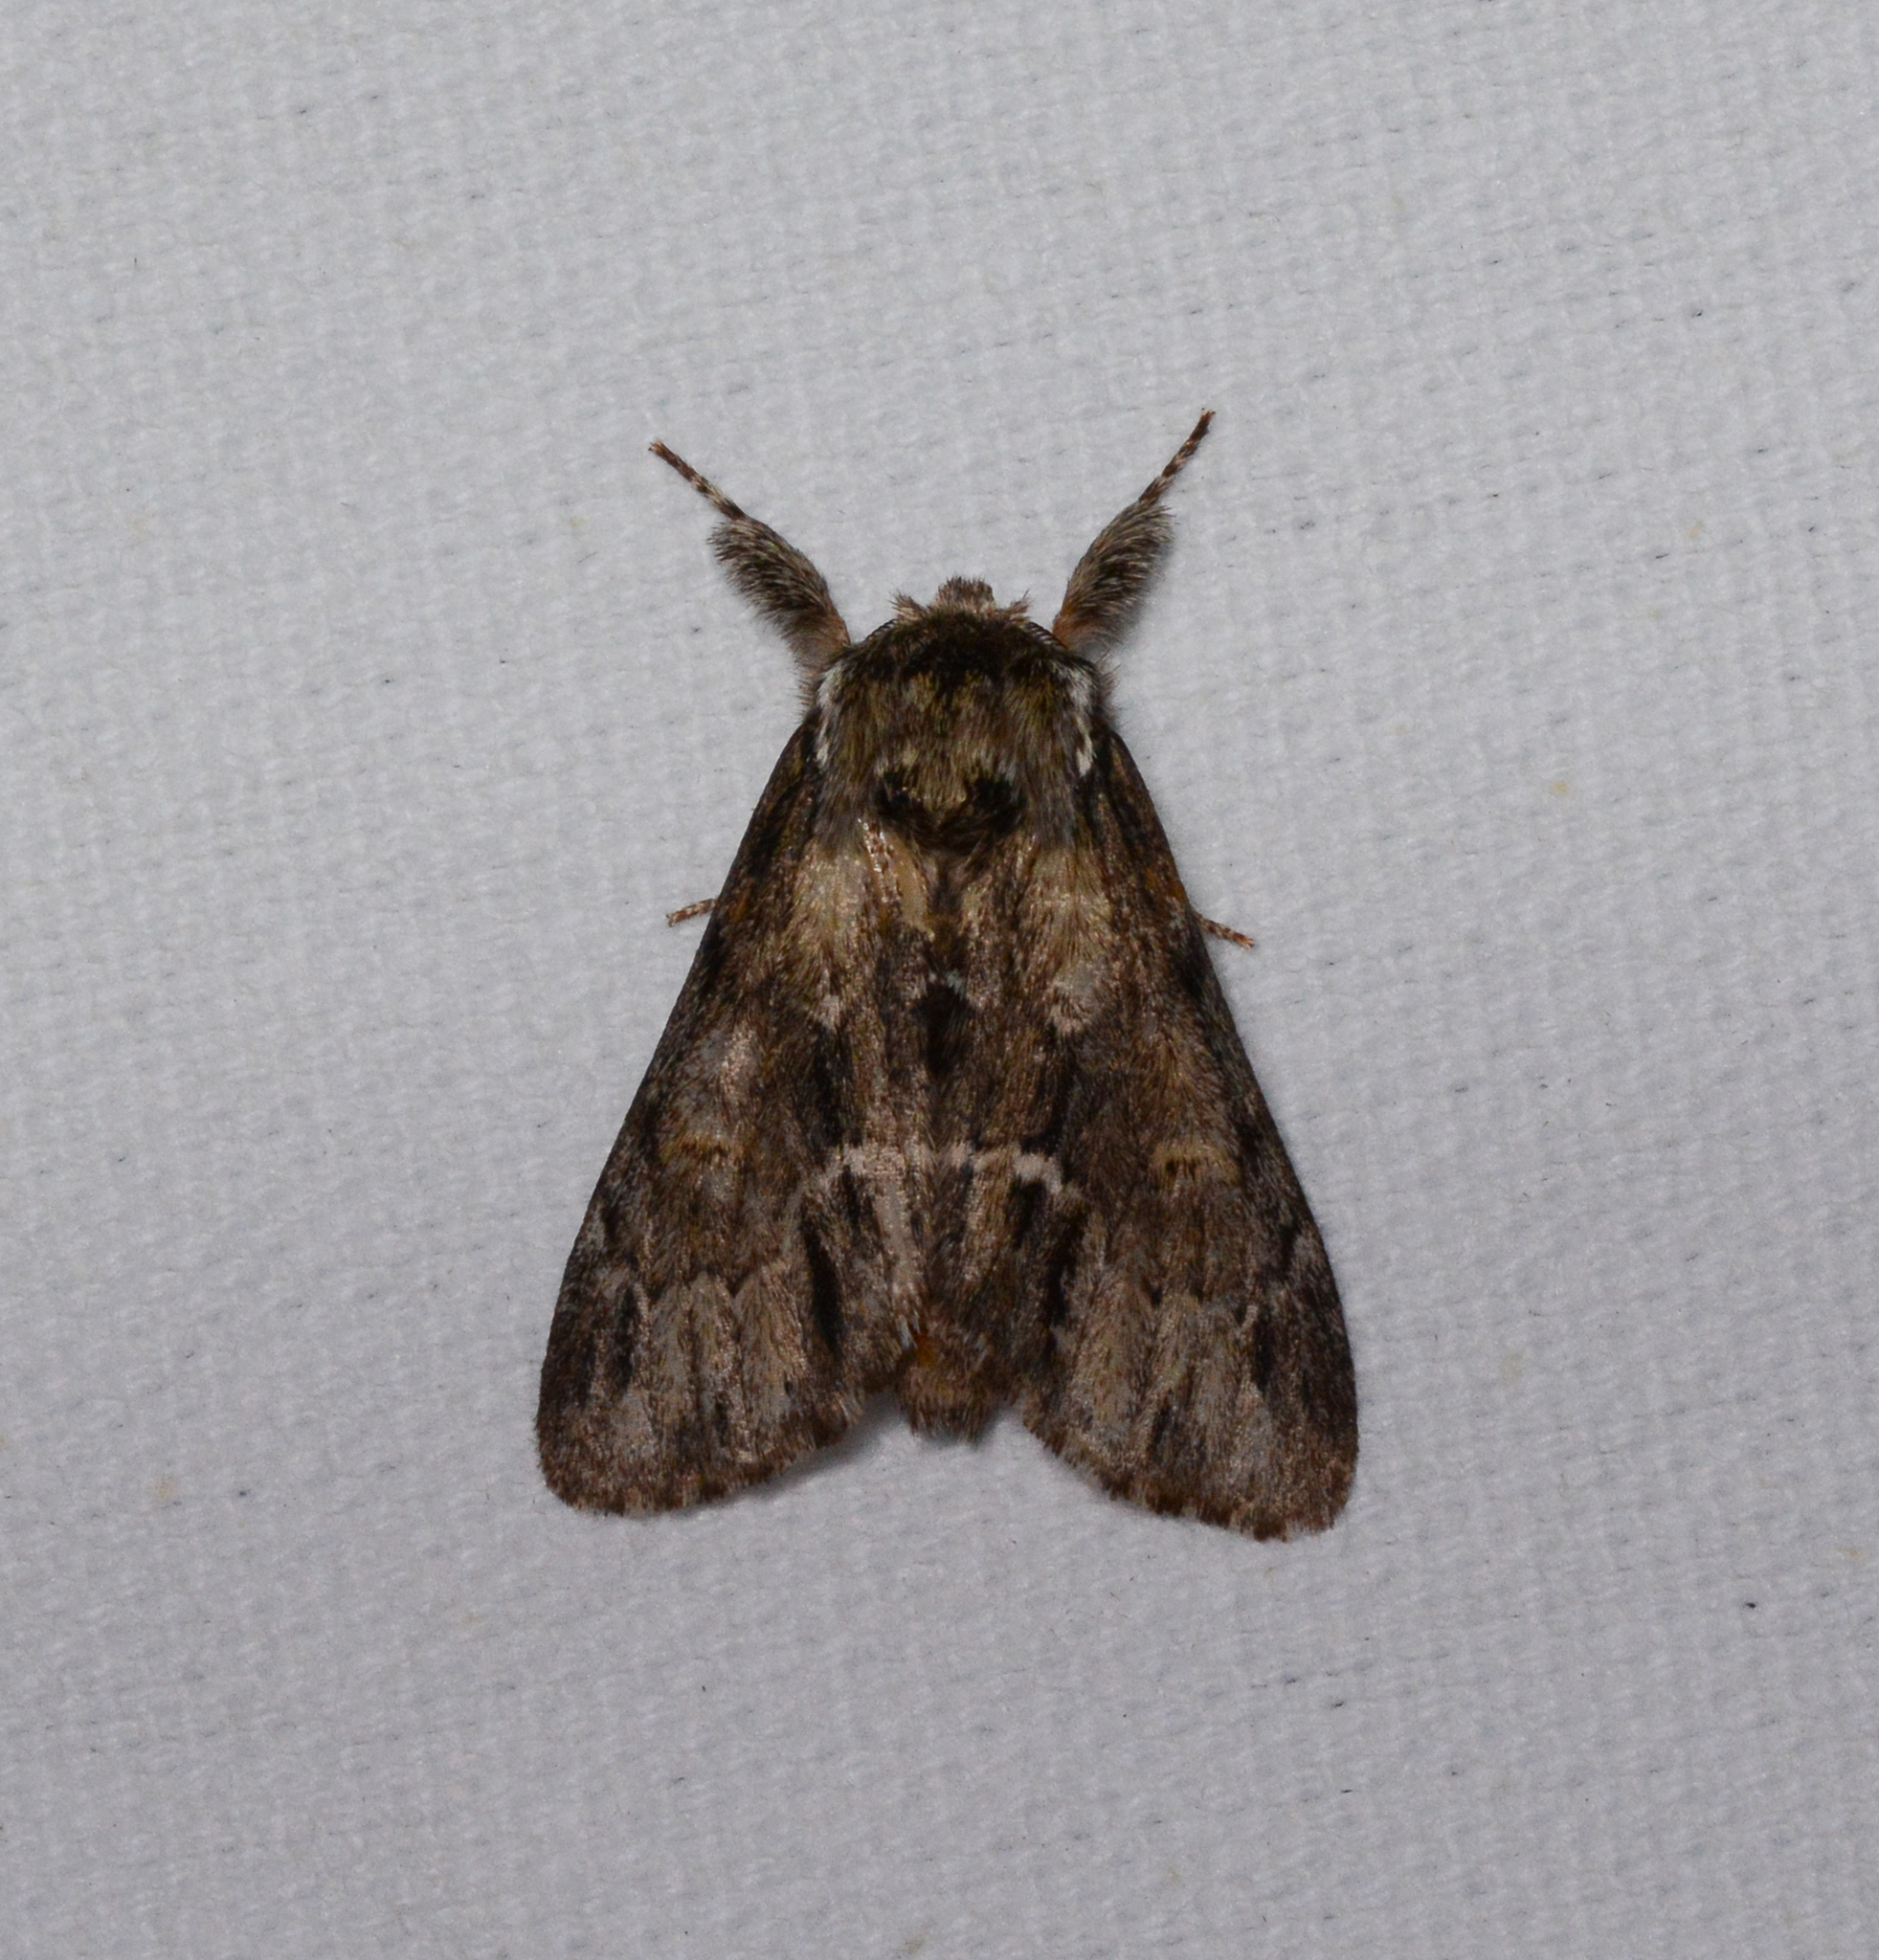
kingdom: Animalia
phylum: Arthropoda
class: Insecta
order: Lepidoptera
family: Notodontidae
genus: Paraeschra
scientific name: Paraeschra georgica
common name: Georgian prominent
